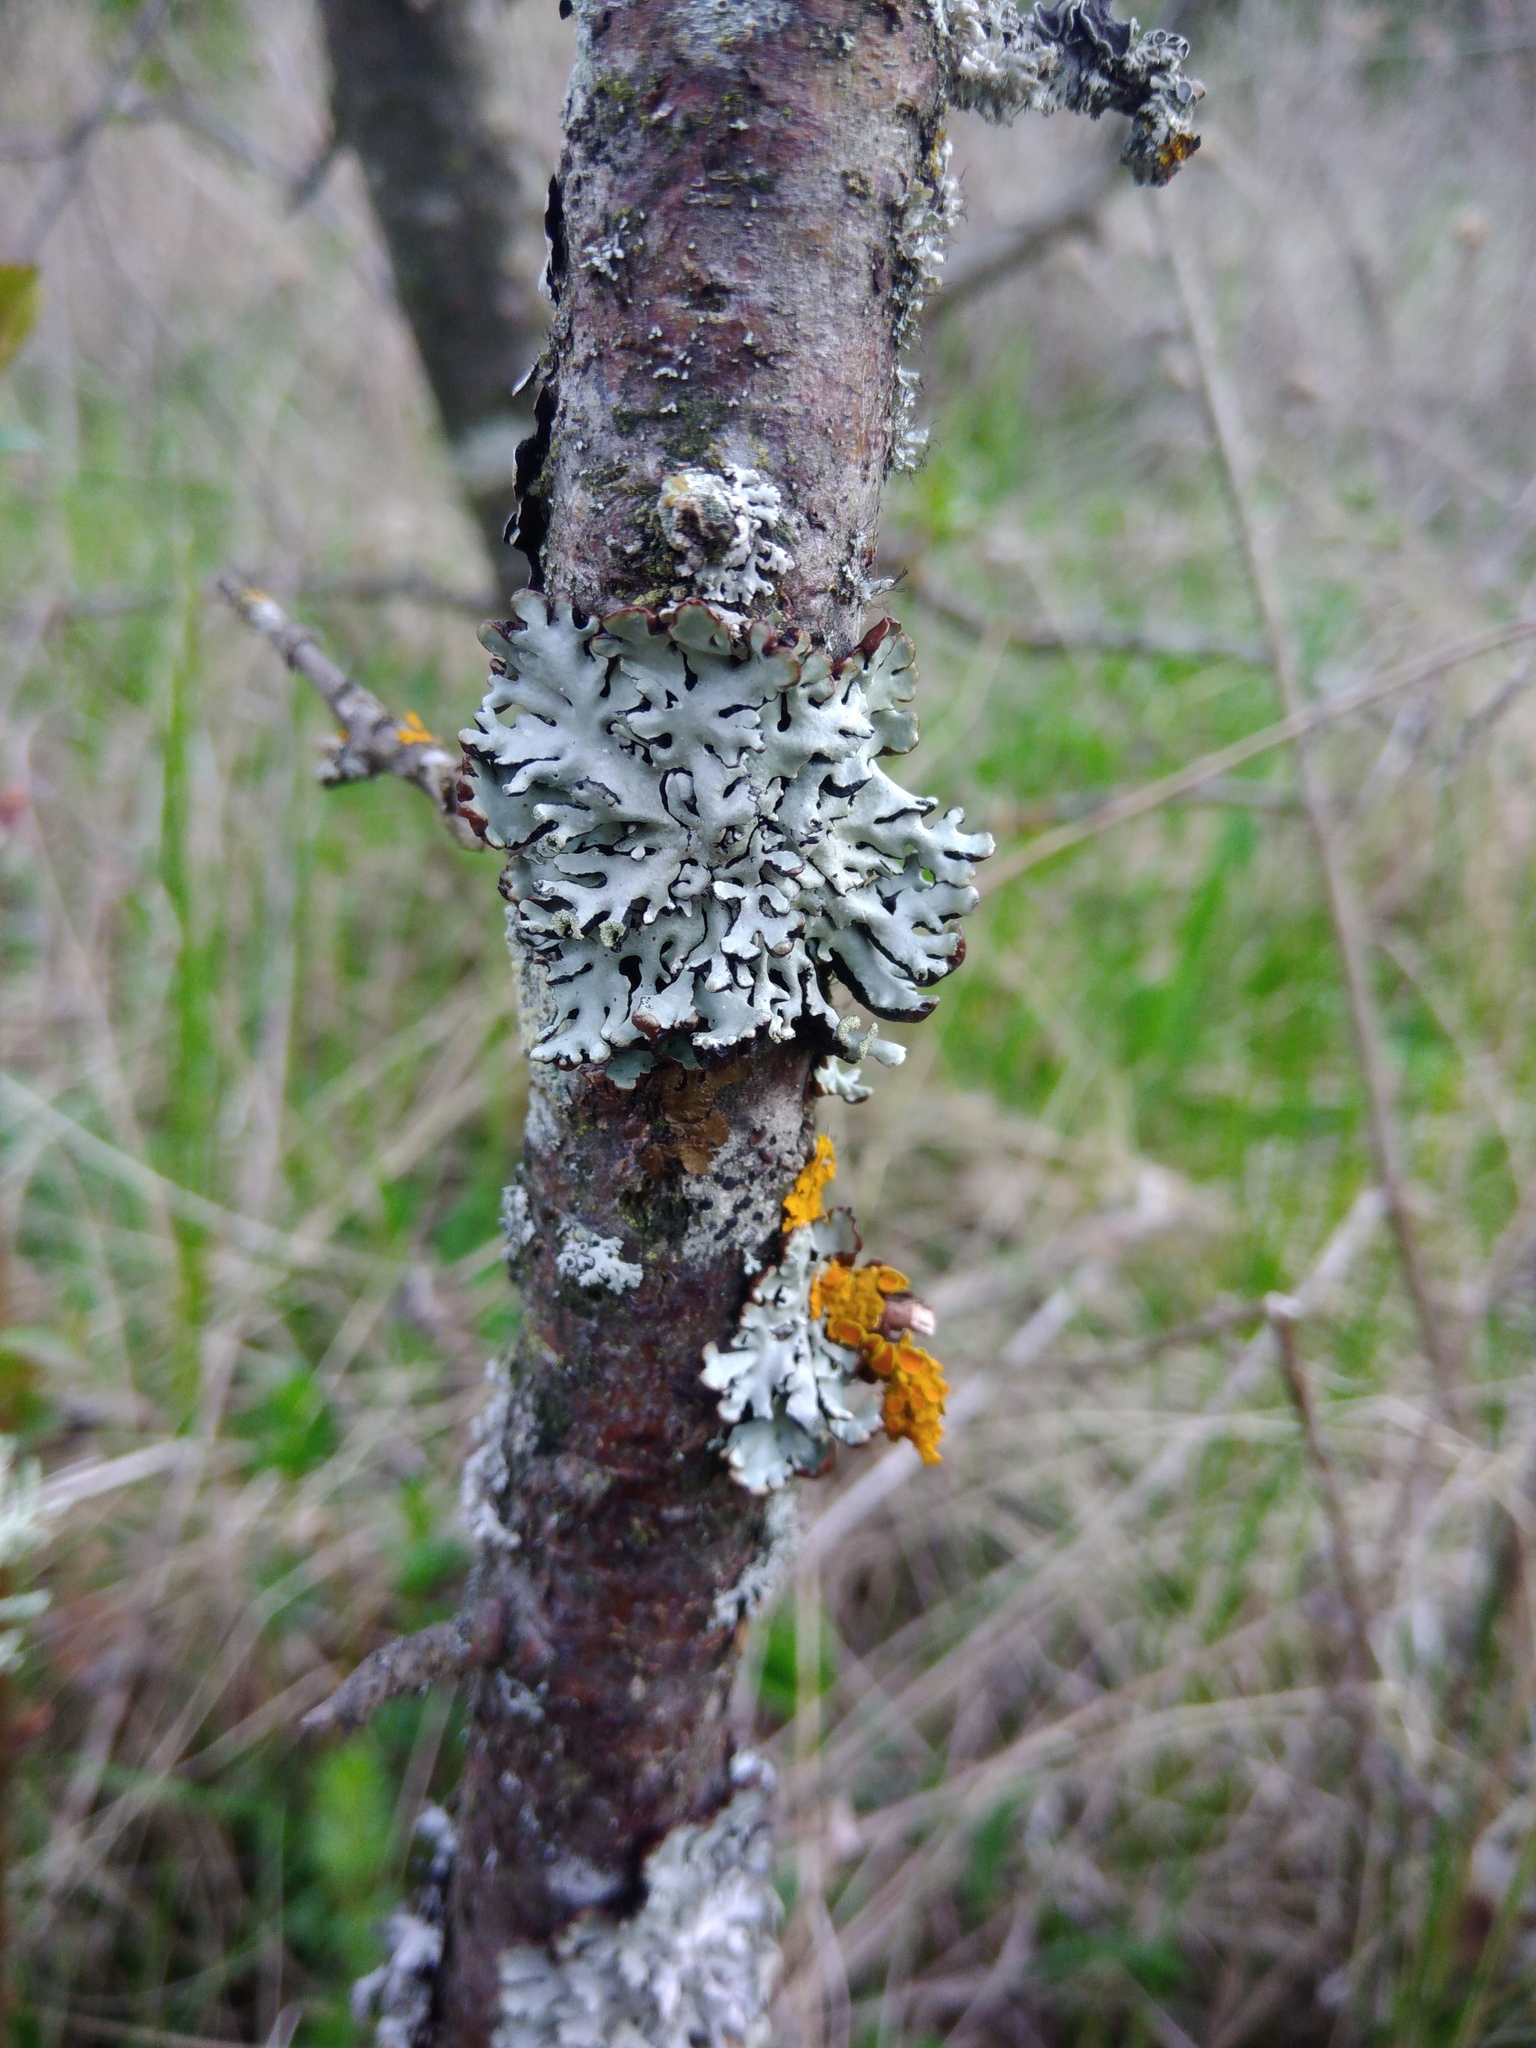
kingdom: Fungi
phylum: Ascomycota
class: Lecanoromycetes
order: Lecanorales
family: Parmeliaceae
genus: Hypogymnia
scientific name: Hypogymnia physodes
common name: Dark crottle
